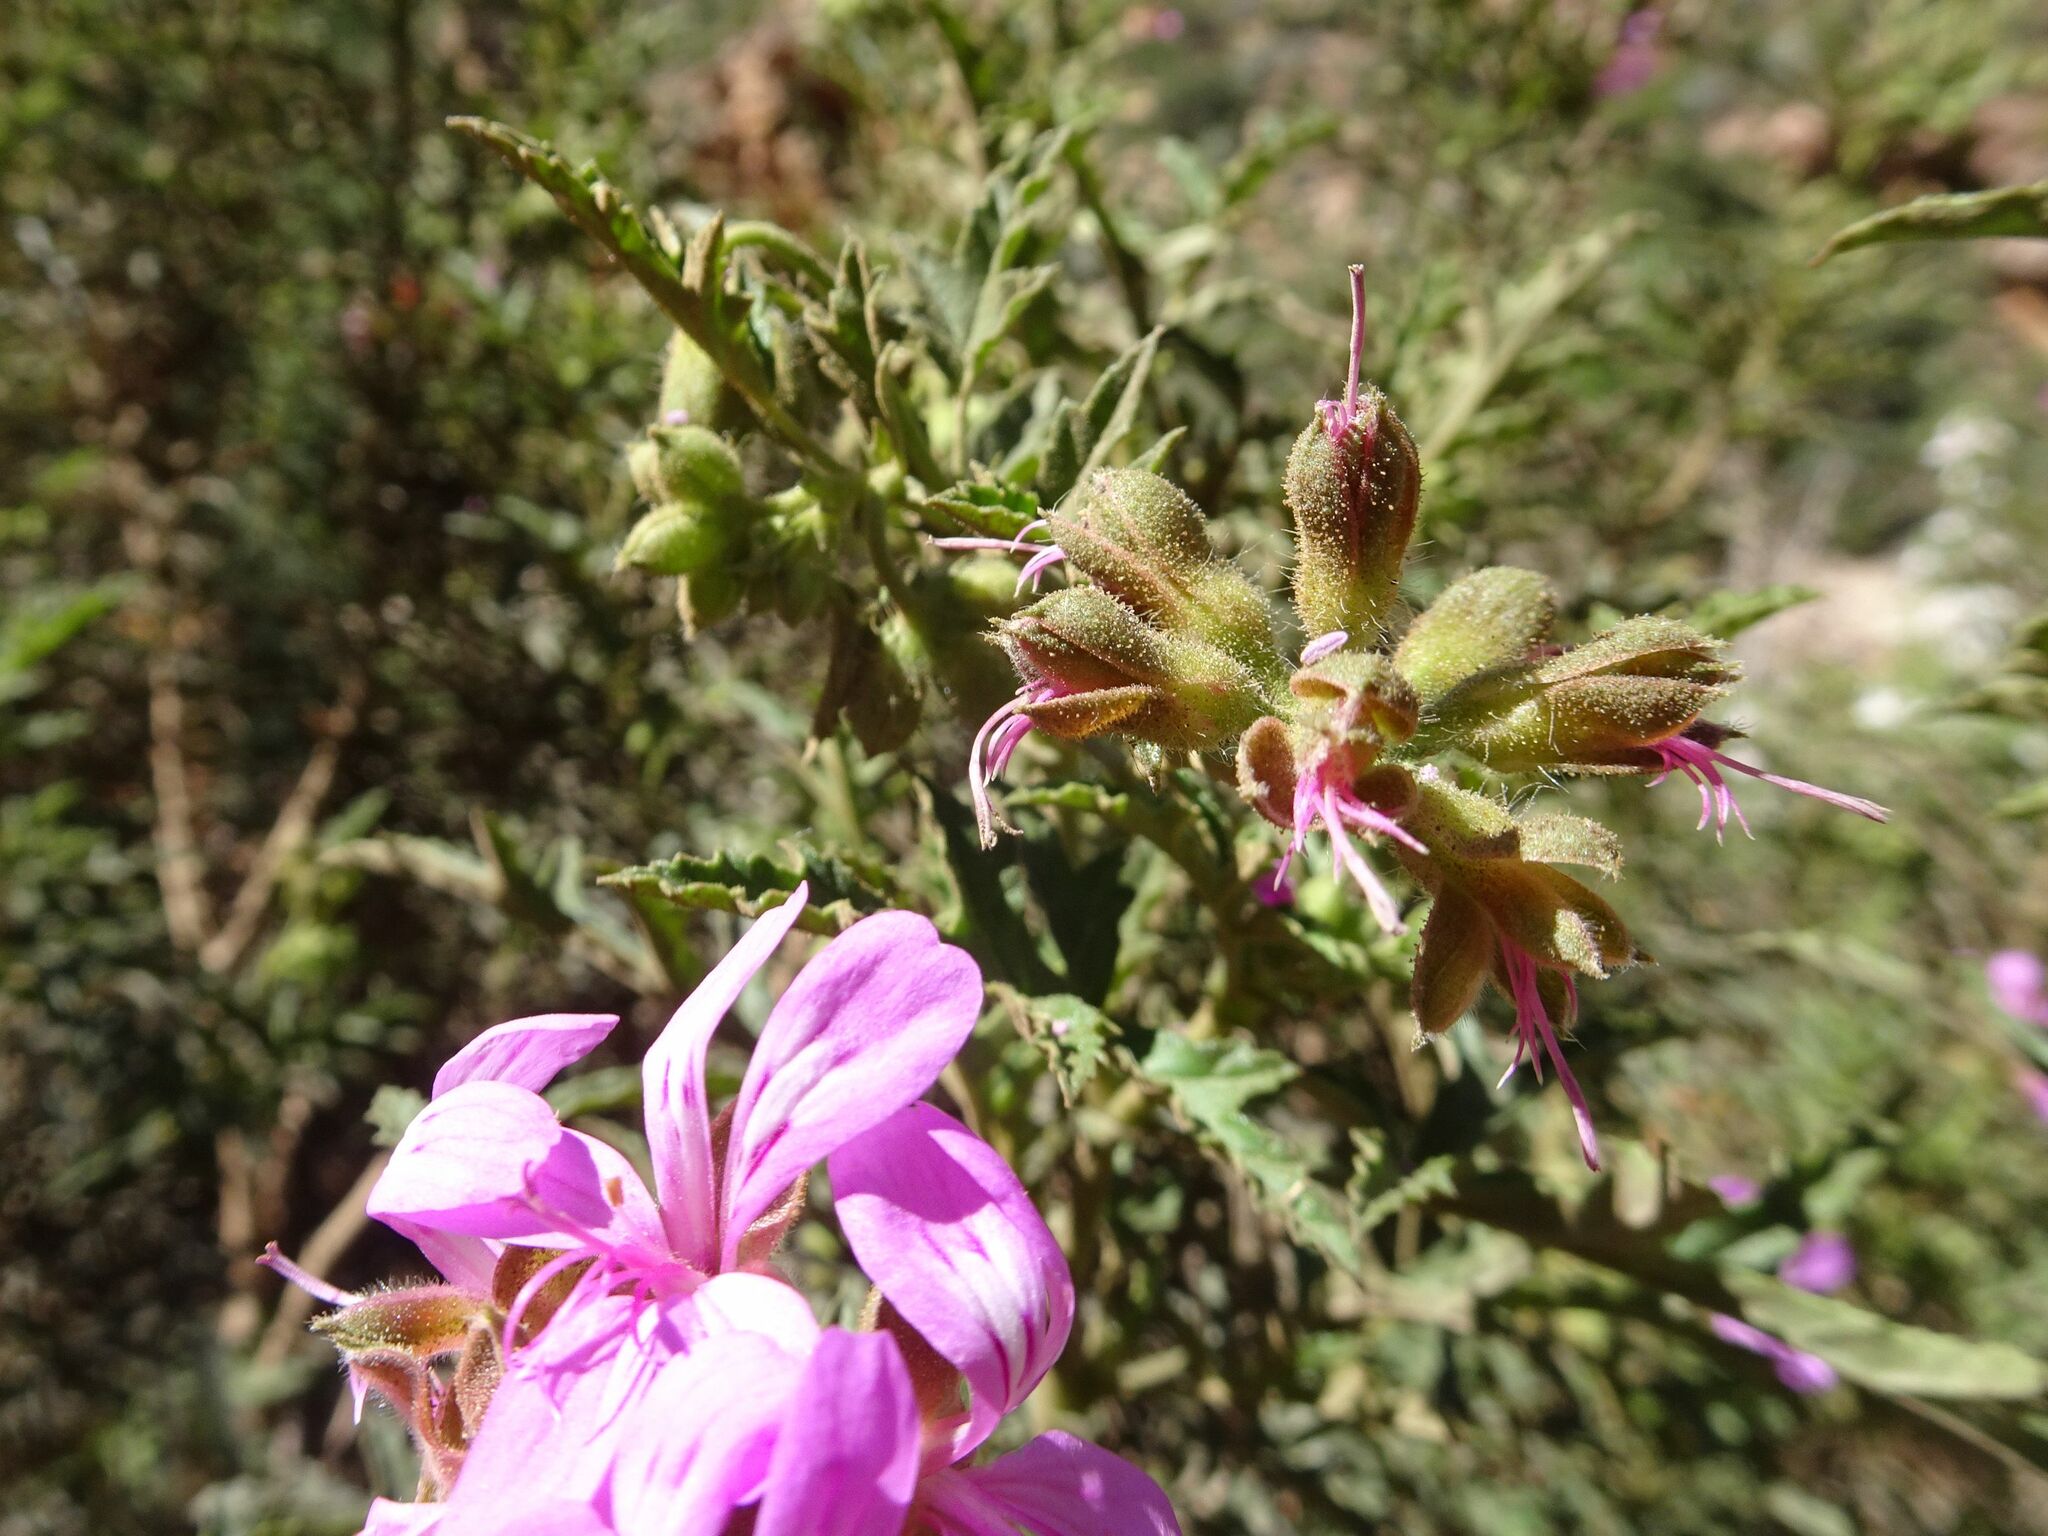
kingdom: Plantae
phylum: Tracheophyta
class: Magnoliopsida
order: Geraniales
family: Geraniaceae
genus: Pelargonium
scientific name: Pelargonium glutinosum
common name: Pheasant-foot geranium
